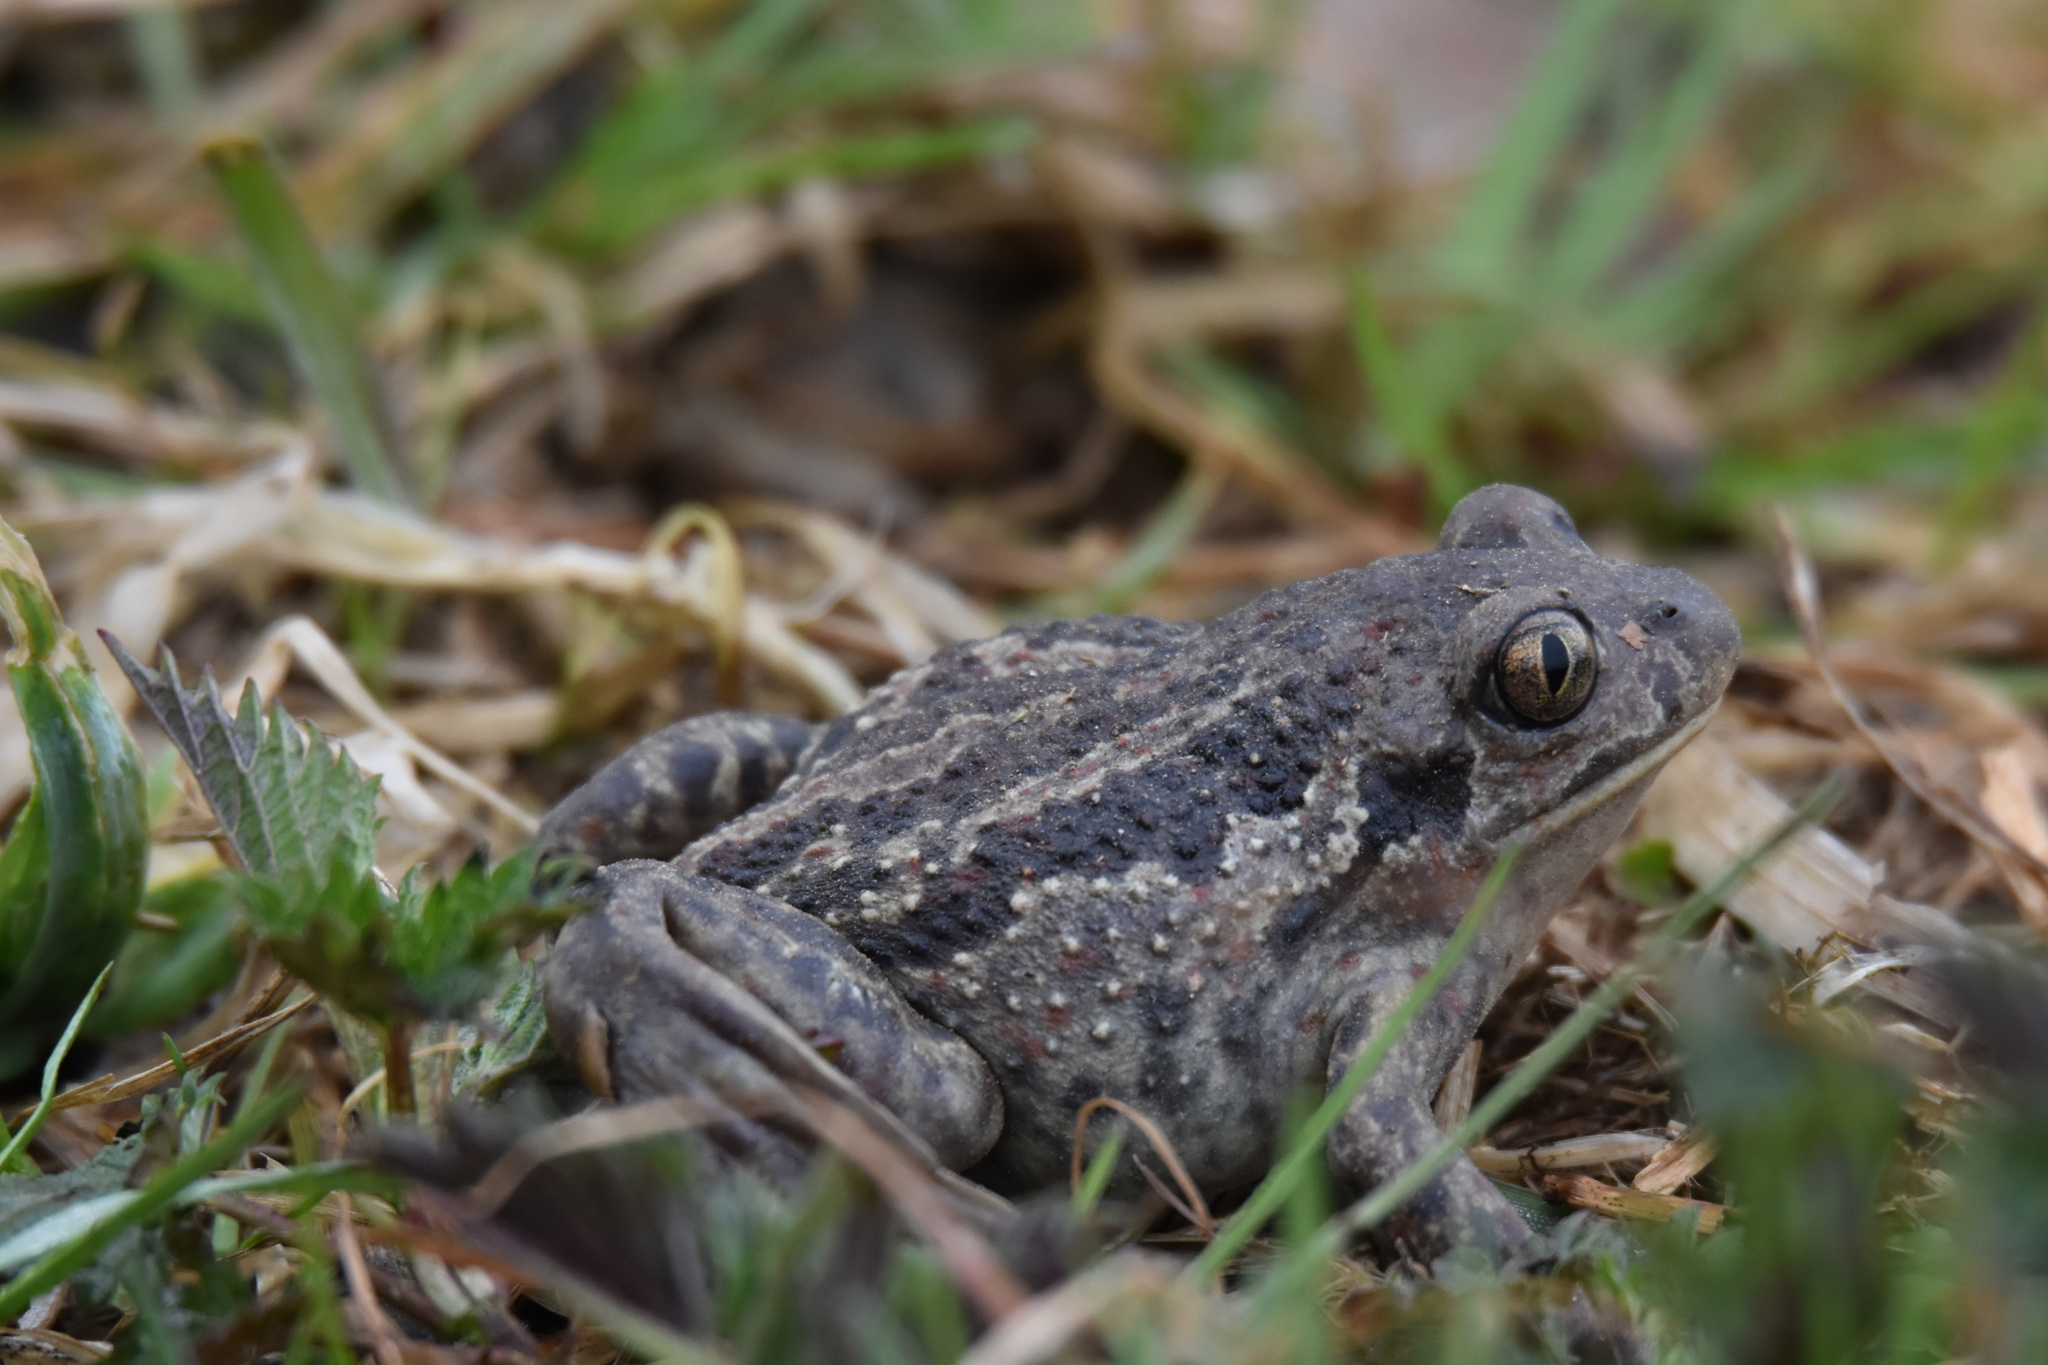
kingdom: Animalia
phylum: Chordata
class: Amphibia
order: Anura
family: Pelobatidae
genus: Pelobates
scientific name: Pelobates fuscus
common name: Common eurasian spadefoot toad
